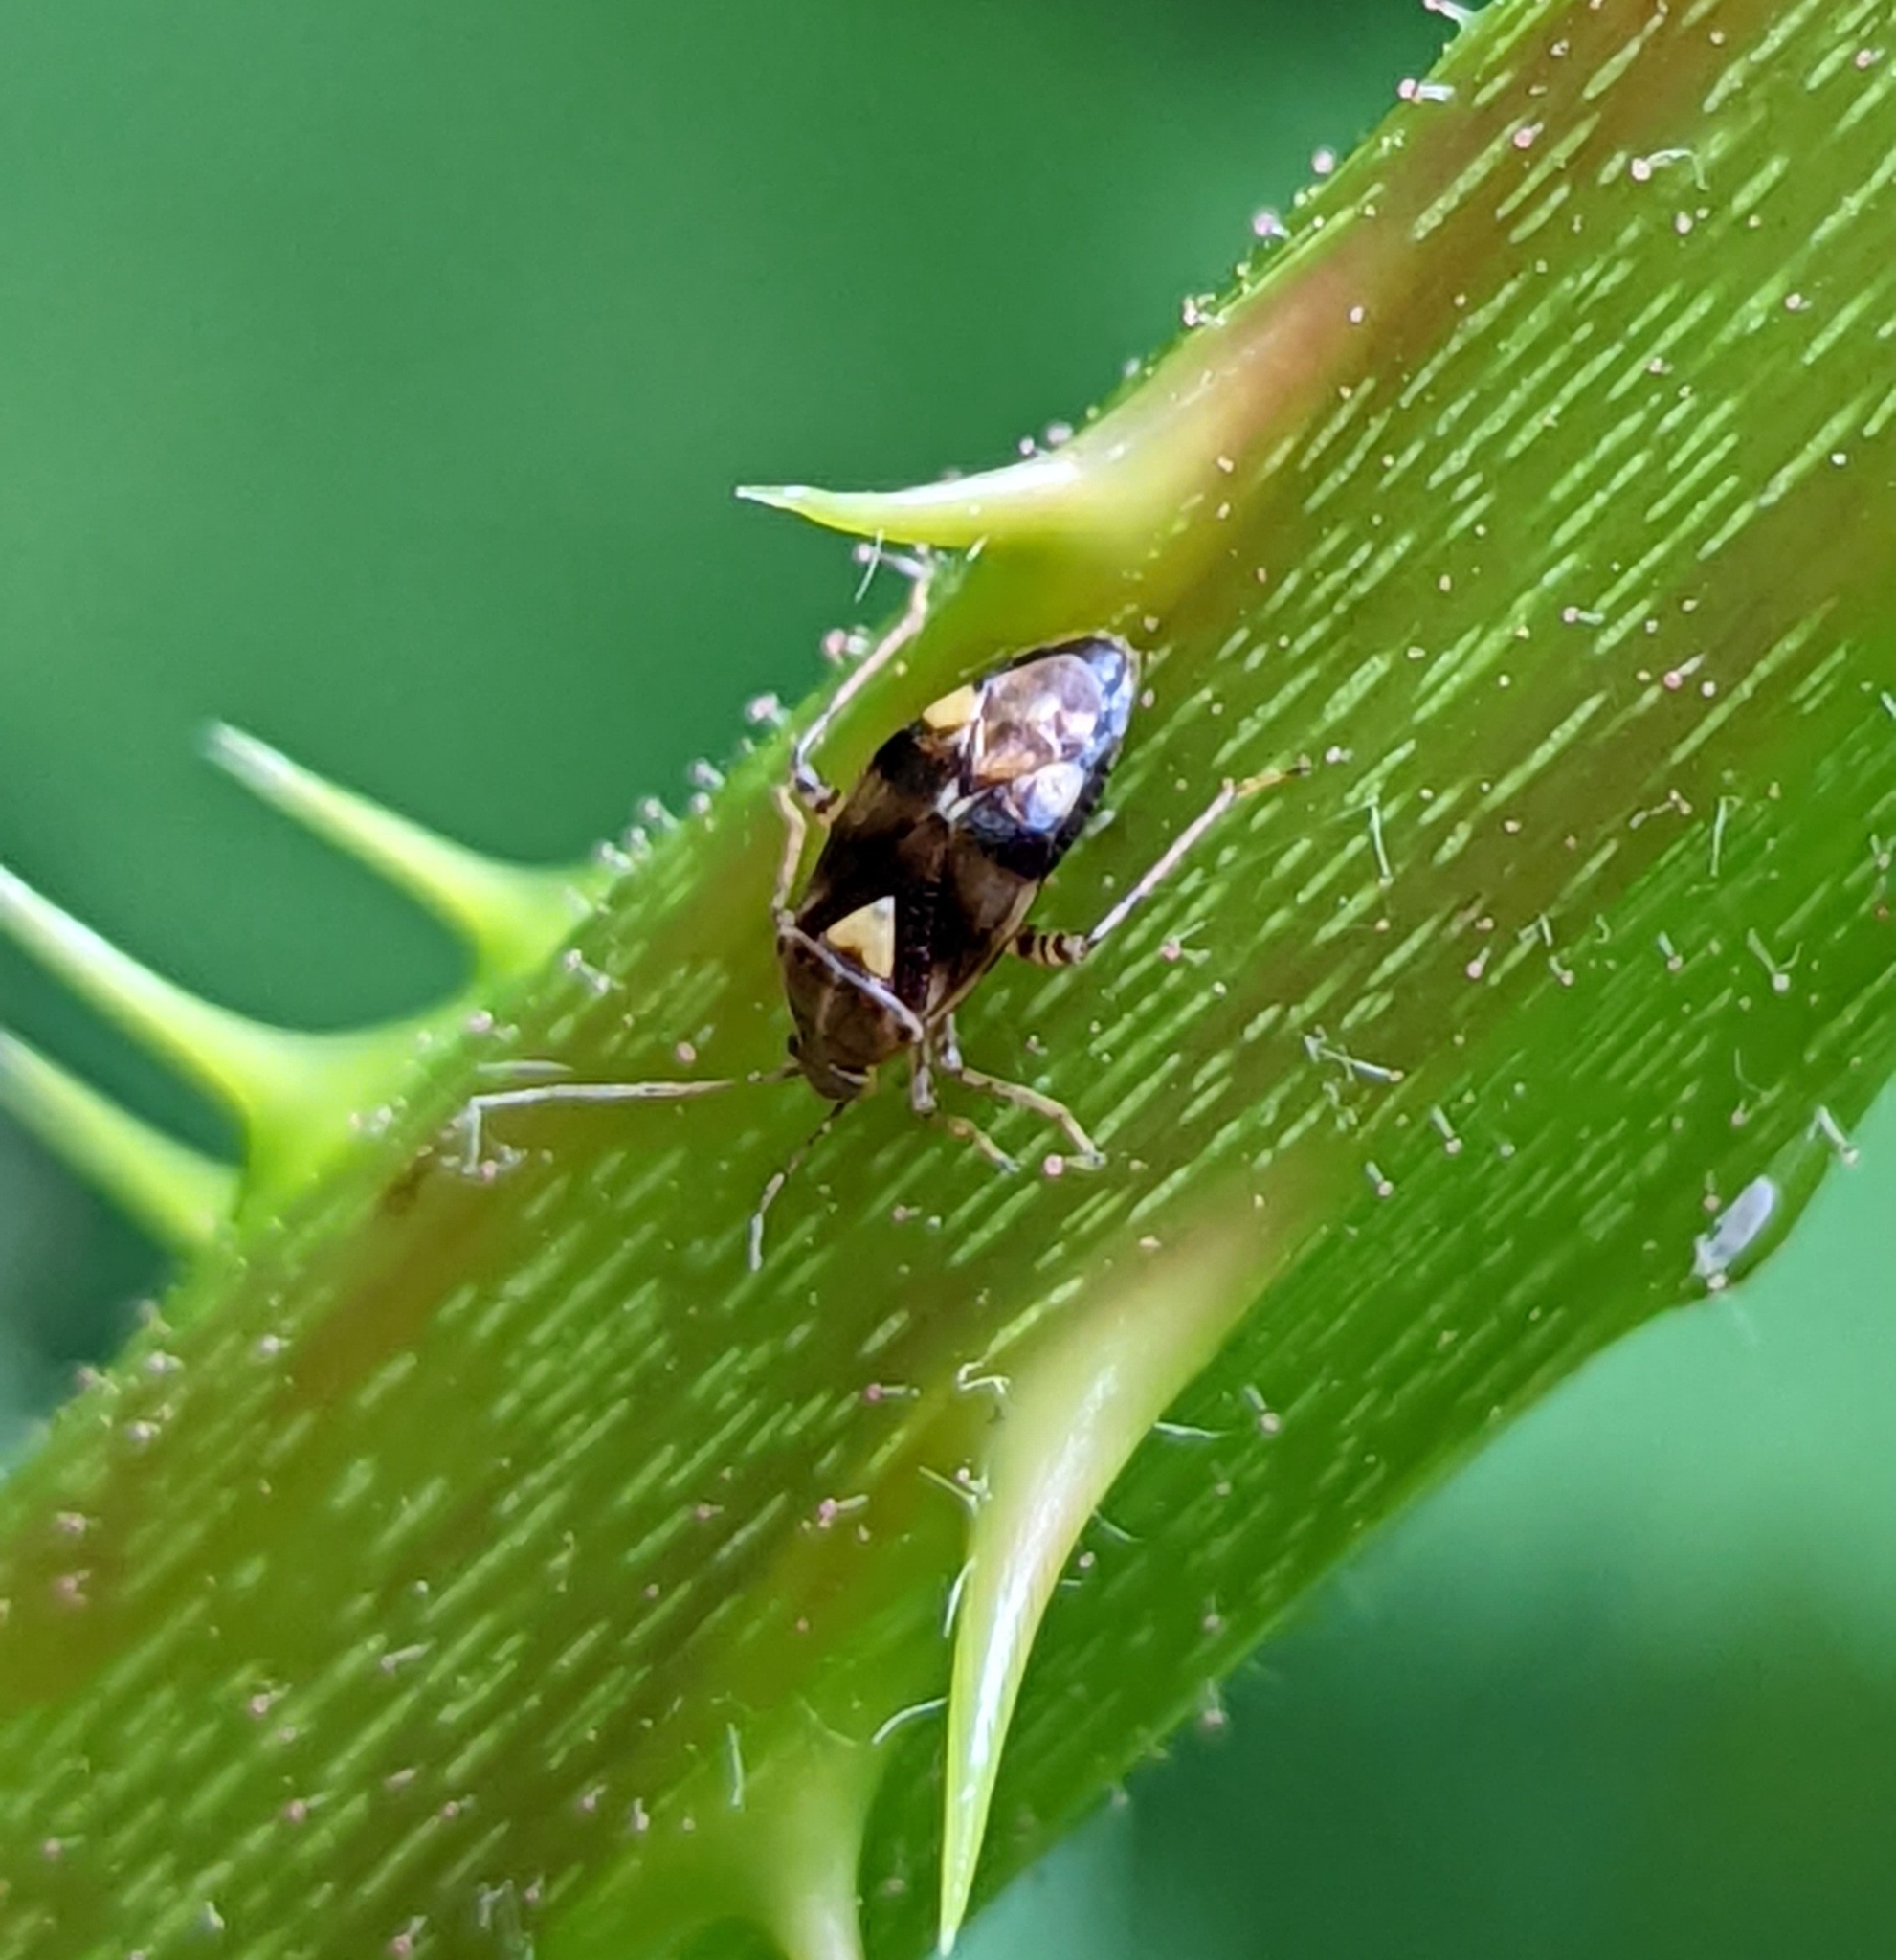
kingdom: Animalia
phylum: Arthropoda
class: Insecta
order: Hemiptera
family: Miridae
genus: Liocoris
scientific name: Liocoris tripustulatus
